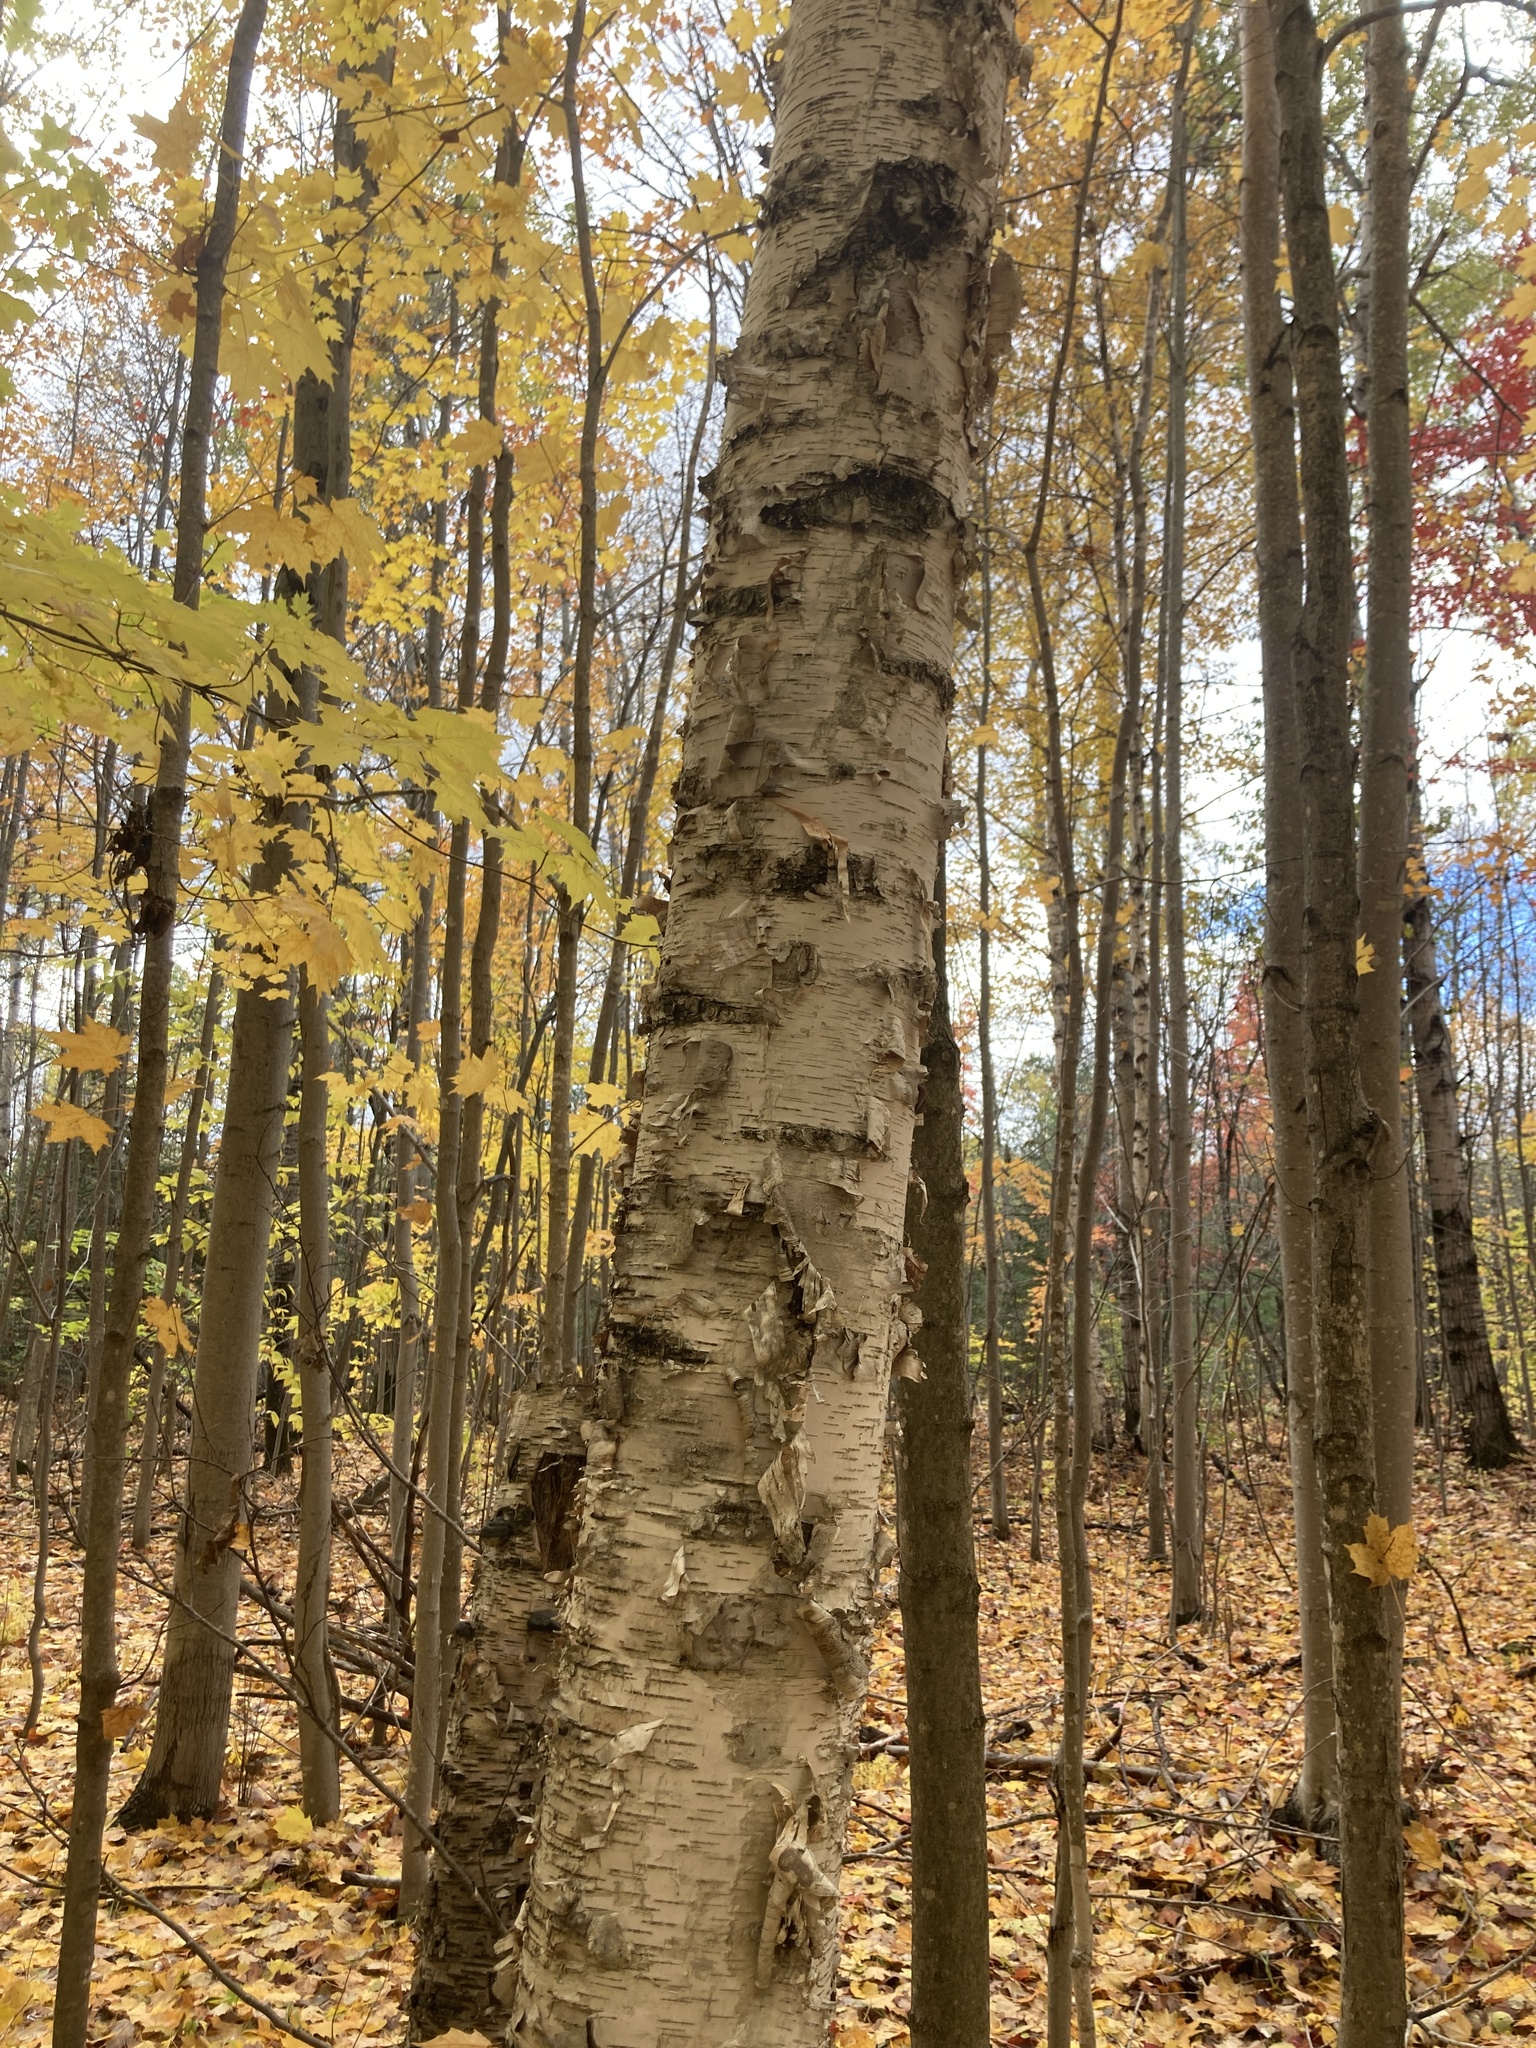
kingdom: Plantae
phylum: Tracheophyta
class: Magnoliopsida
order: Fagales
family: Betulaceae
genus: Betula
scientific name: Betula papyrifera
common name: Paper birch
